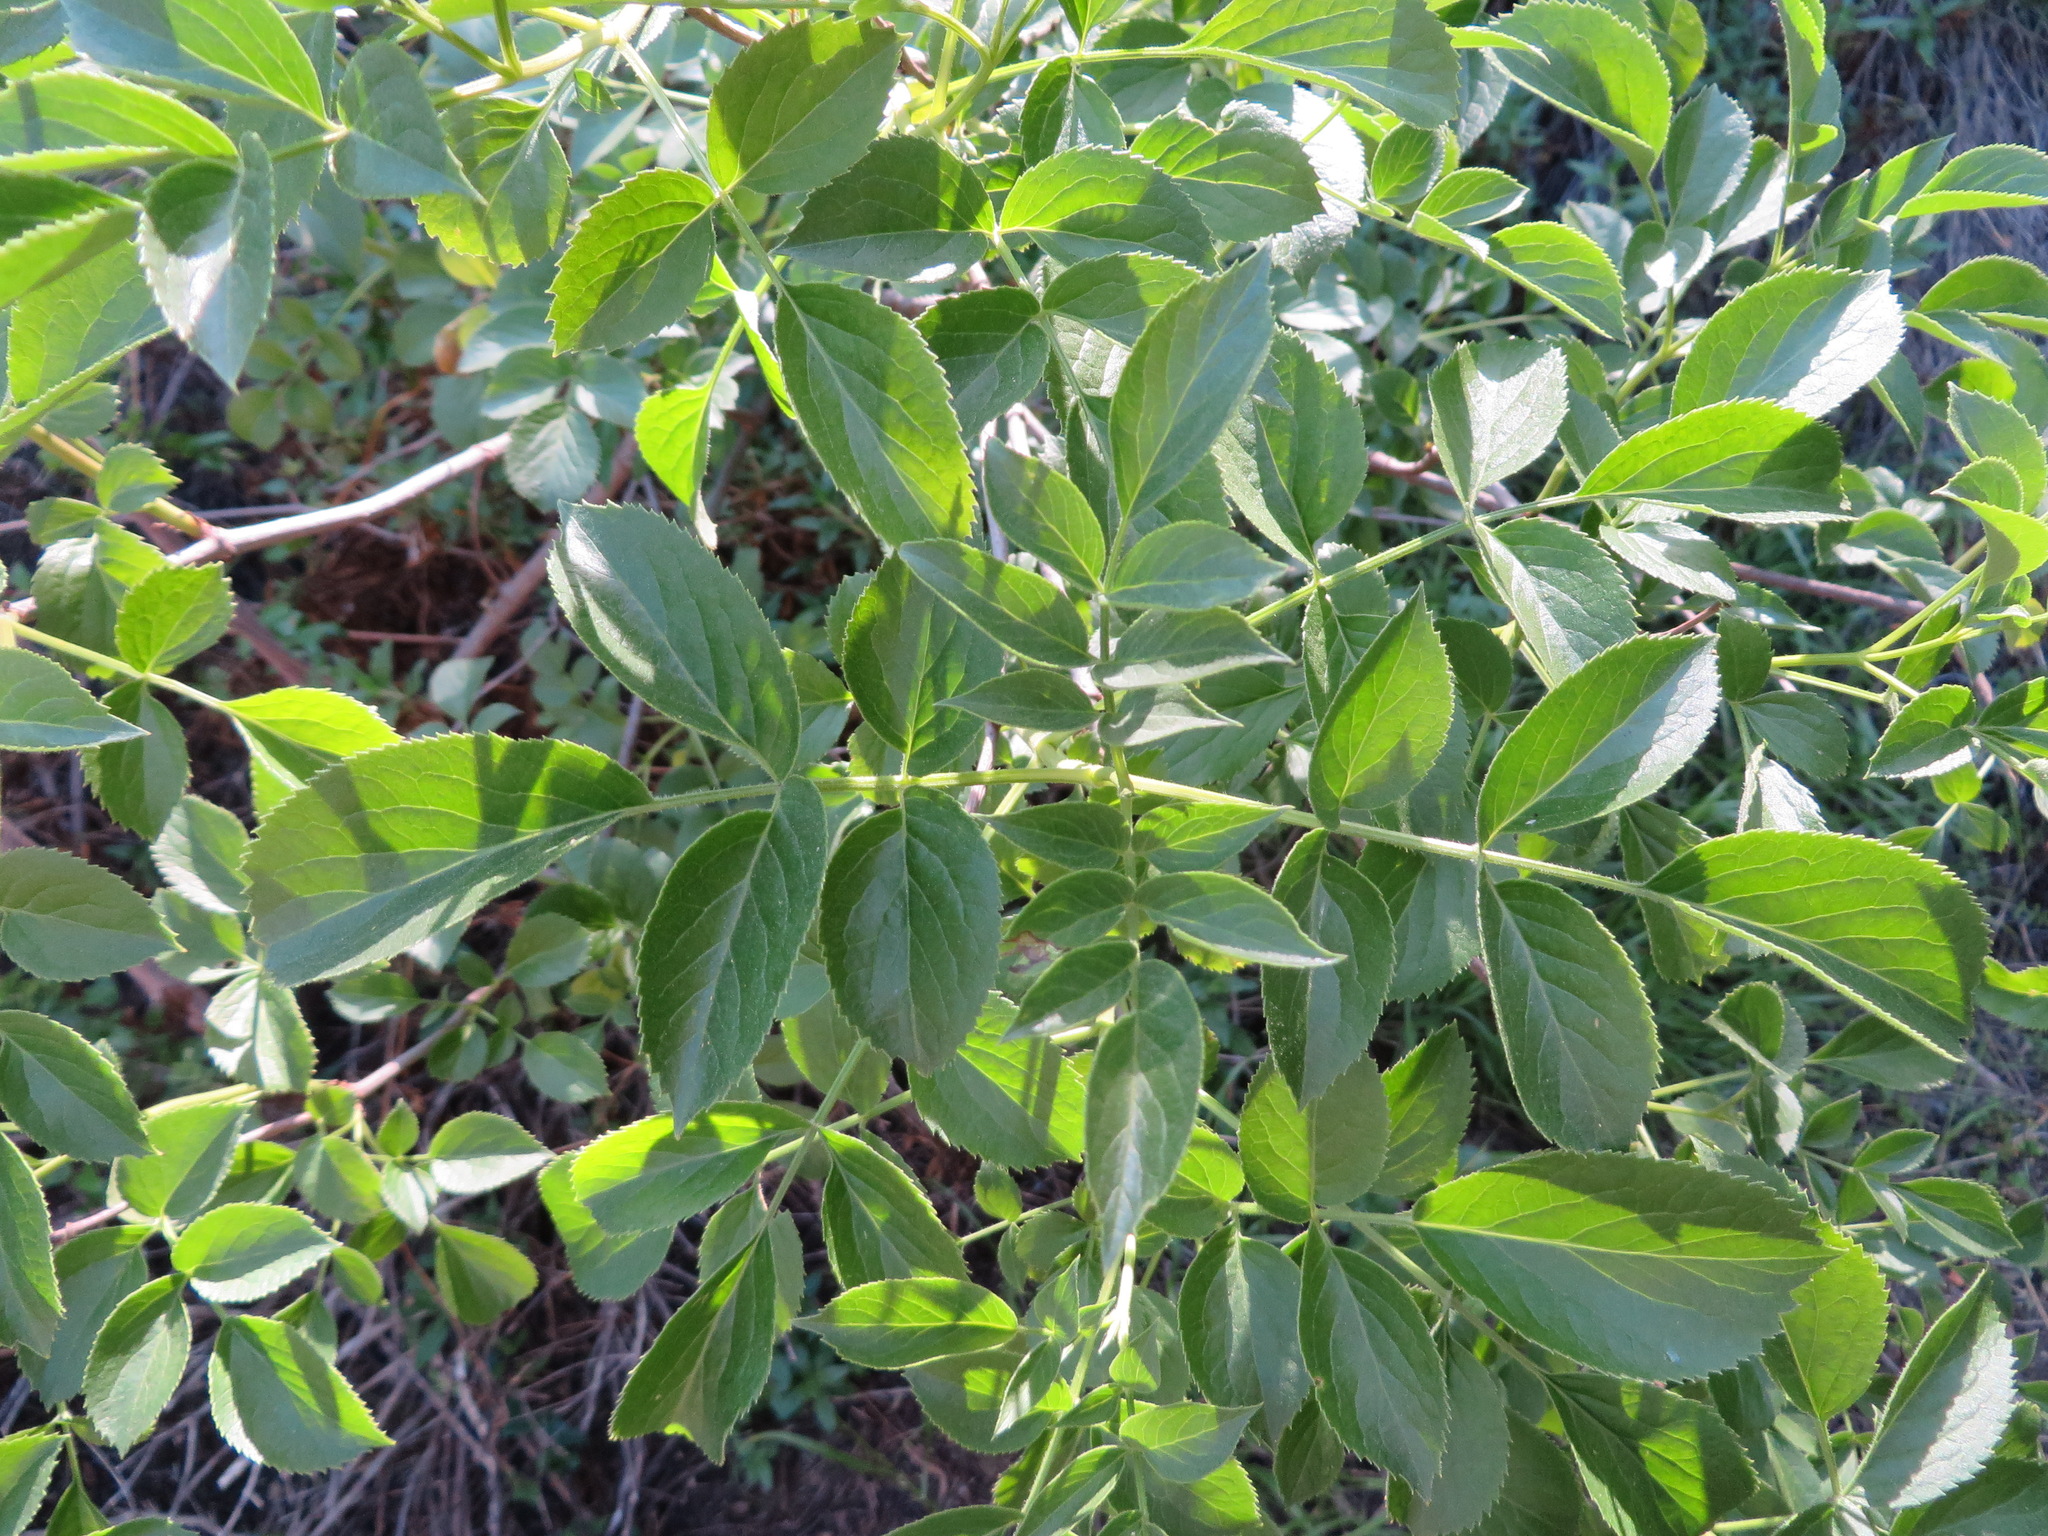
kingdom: Plantae
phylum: Tracheophyta
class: Magnoliopsida
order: Dipsacales
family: Viburnaceae
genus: Sambucus
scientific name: Sambucus cerulea
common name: Blue elder
